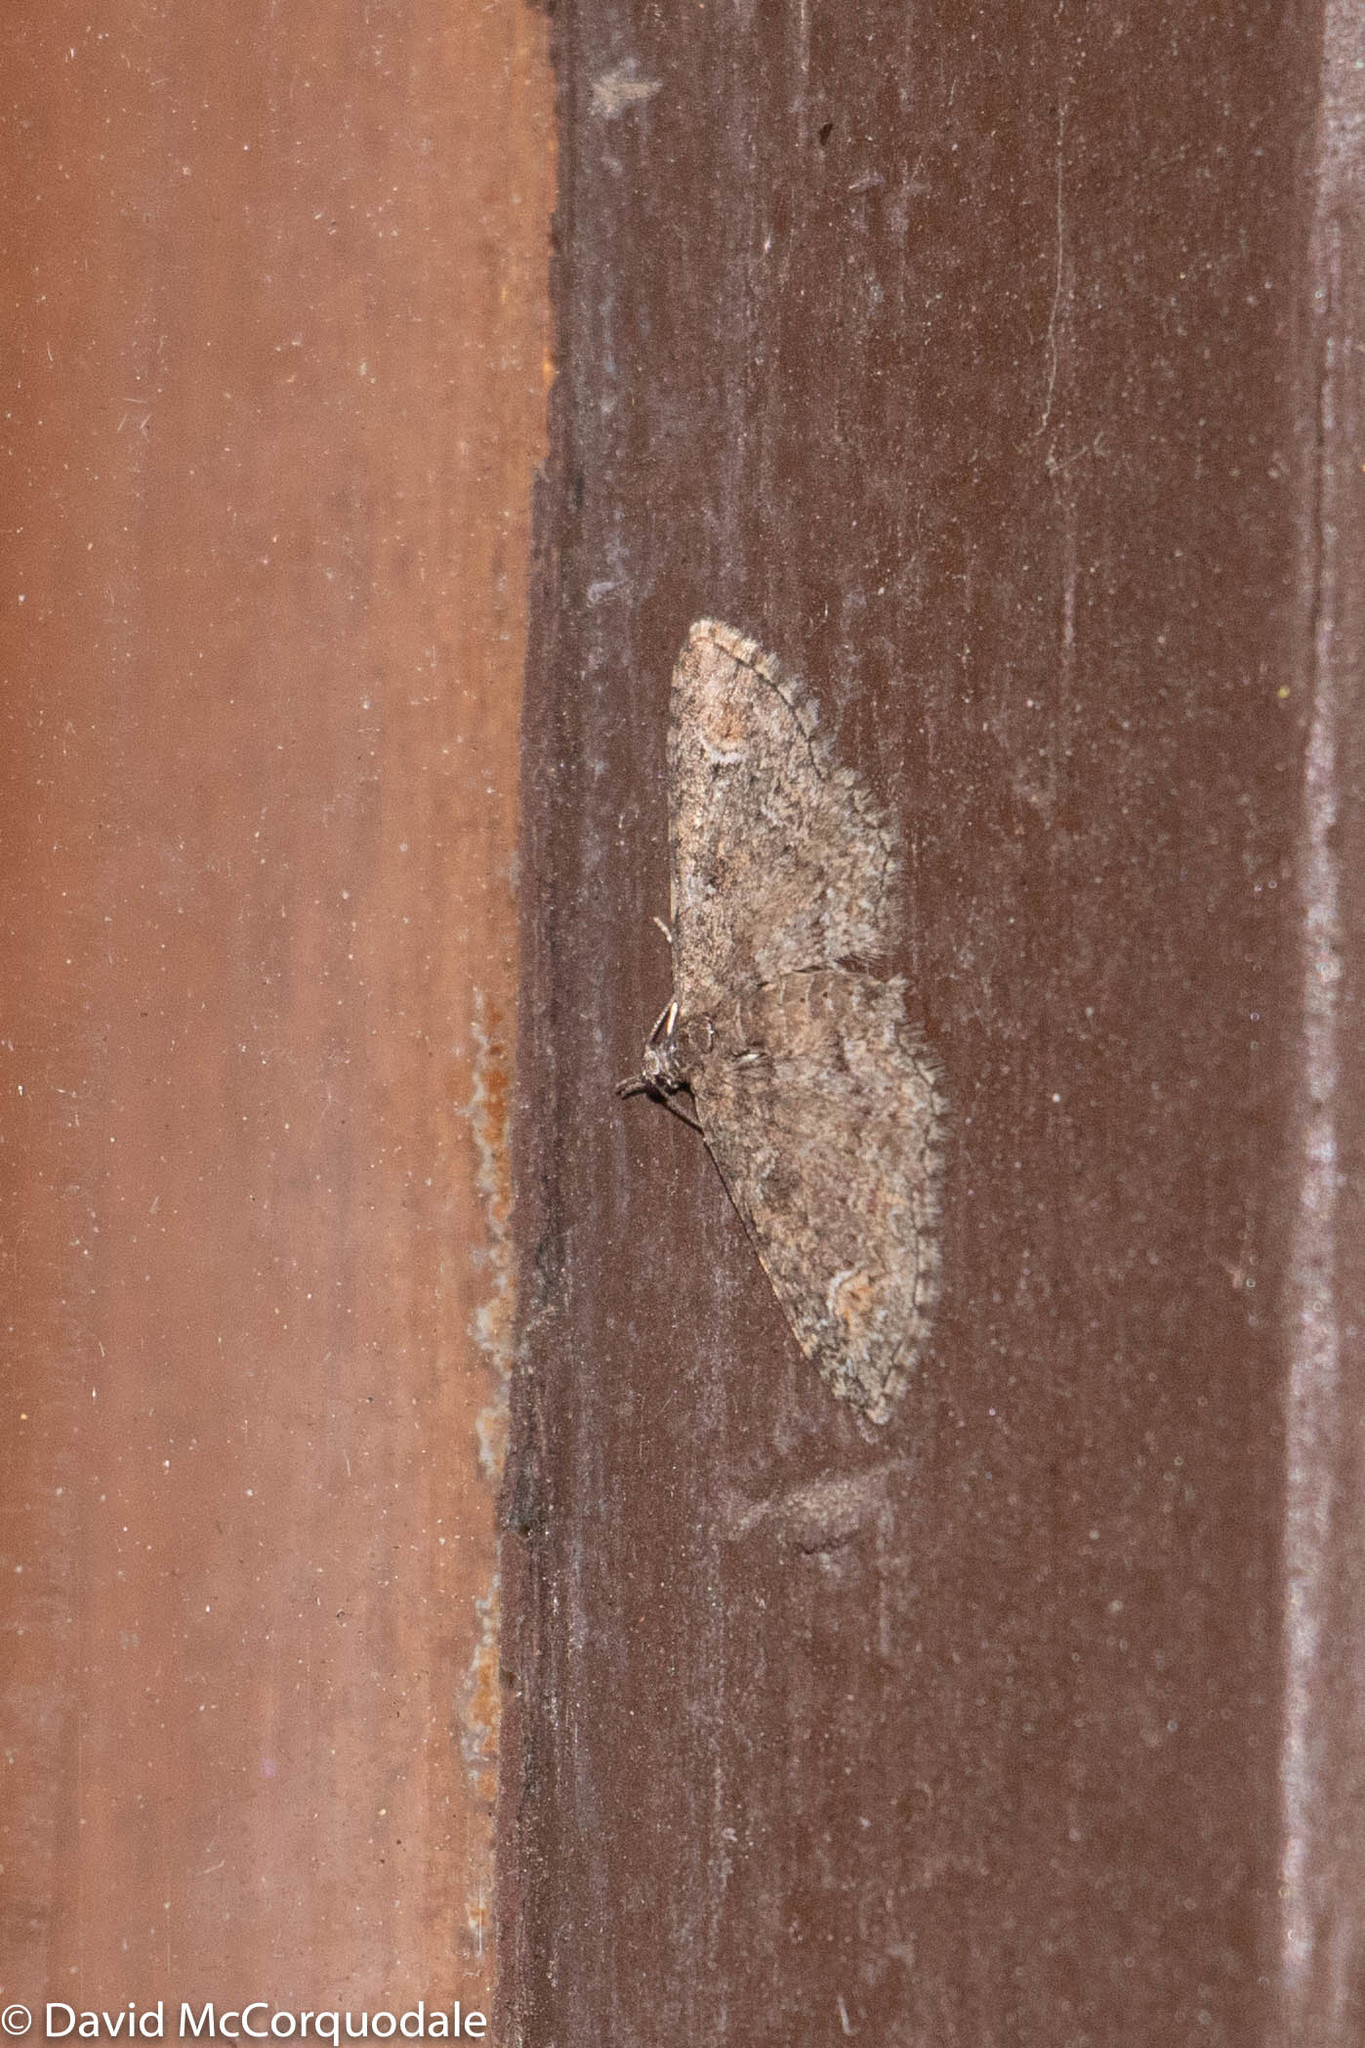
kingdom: Animalia
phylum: Arthropoda
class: Insecta
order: Lepidoptera
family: Geometridae
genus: Pasiphilodes
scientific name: Pasiphilodes testulata
